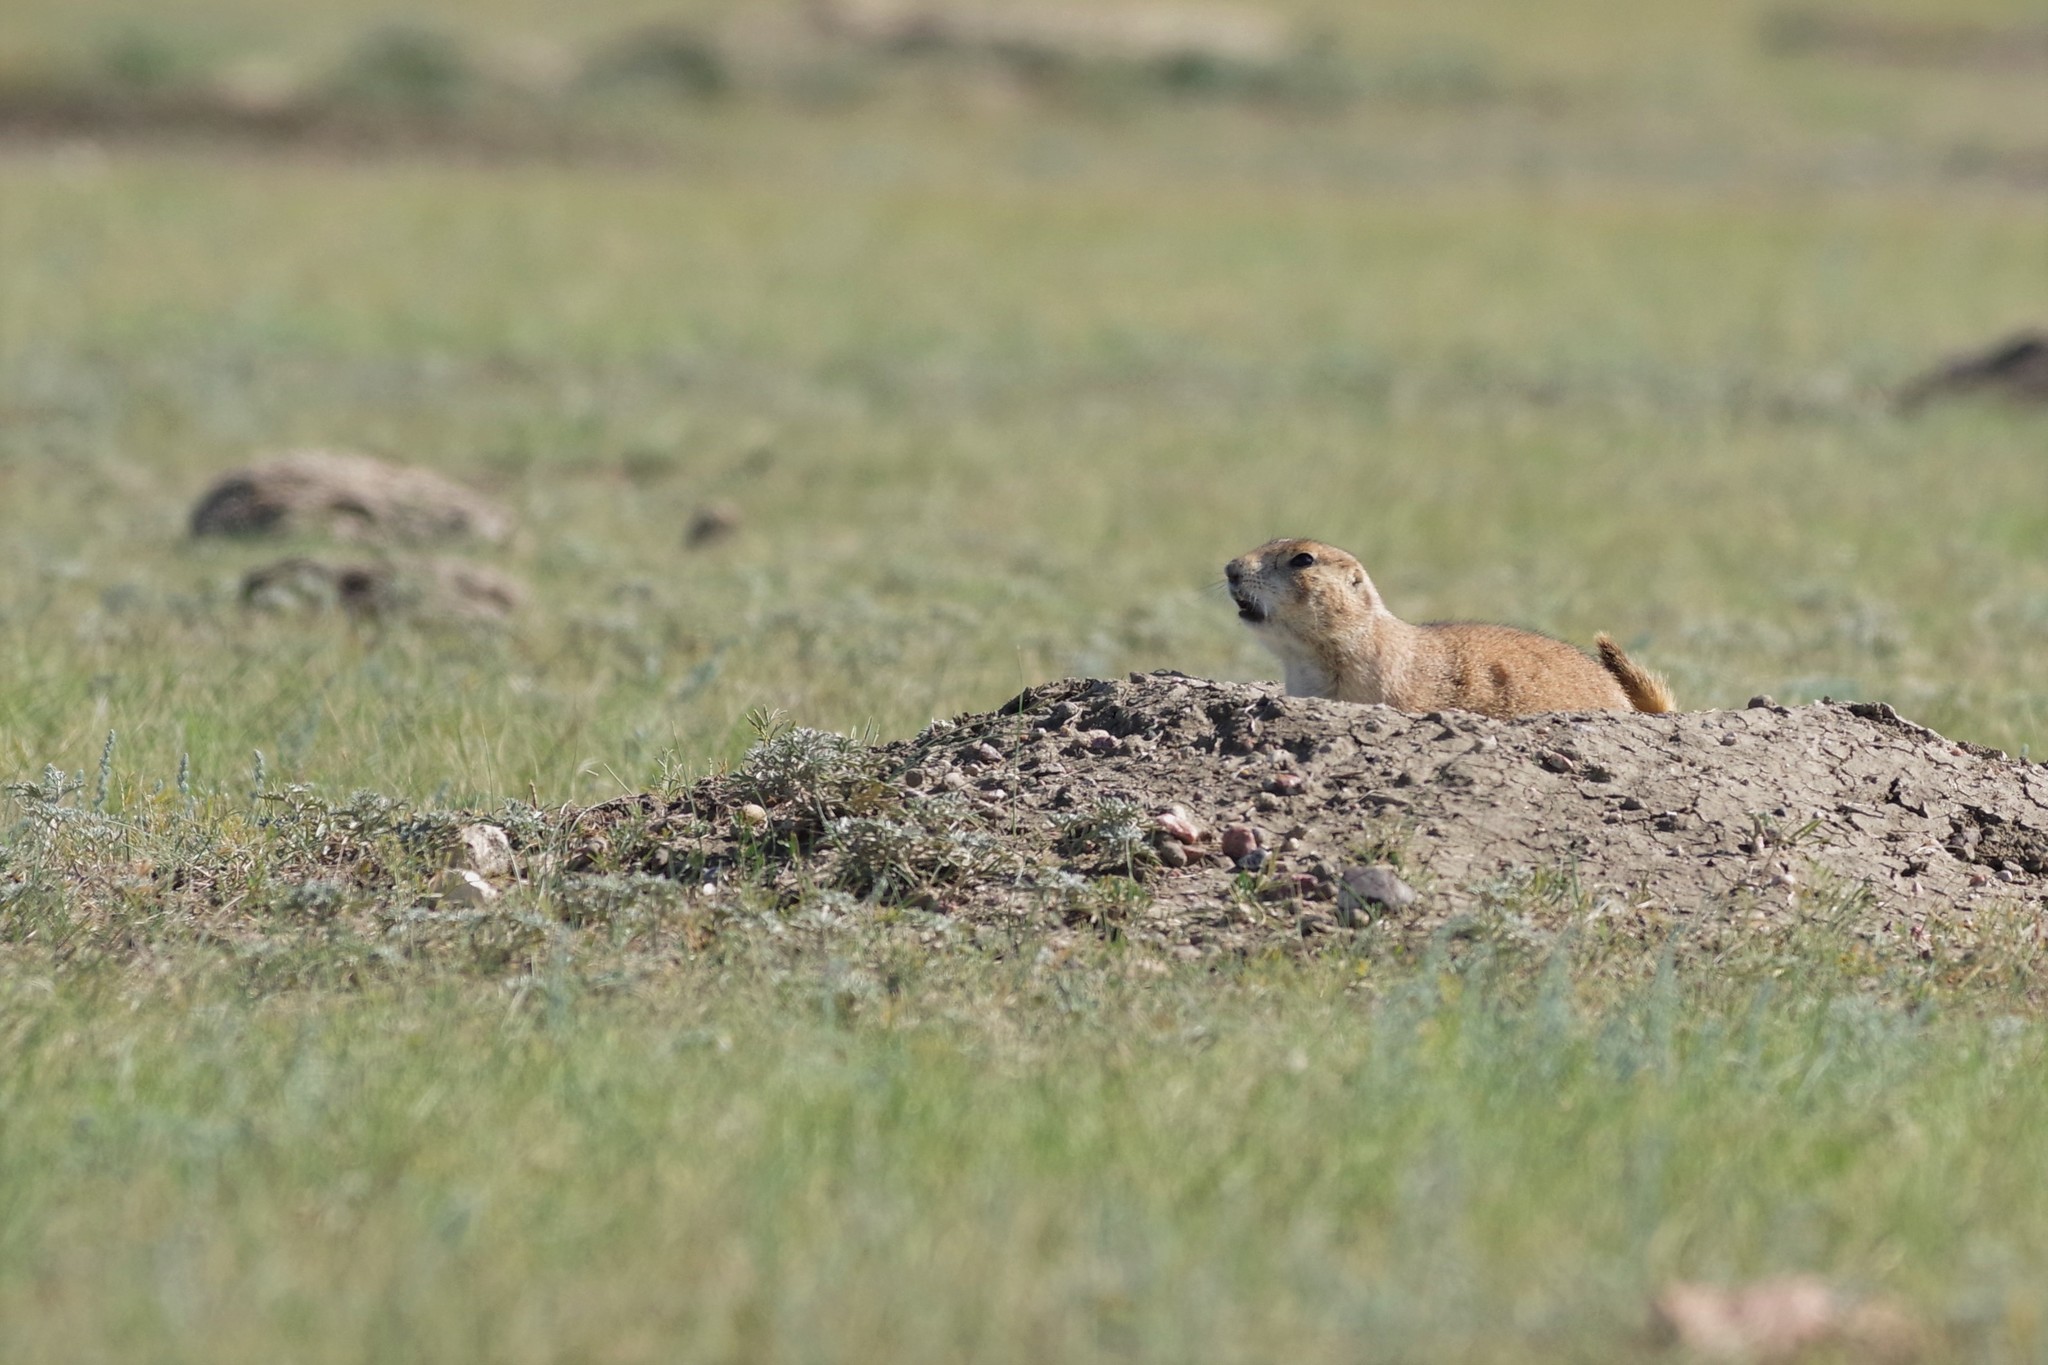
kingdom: Animalia
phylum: Chordata
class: Mammalia
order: Rodentia
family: Sciuridae
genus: Cynomys
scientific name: Cynomys ludovicianus
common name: Black-tailed prairie dog
